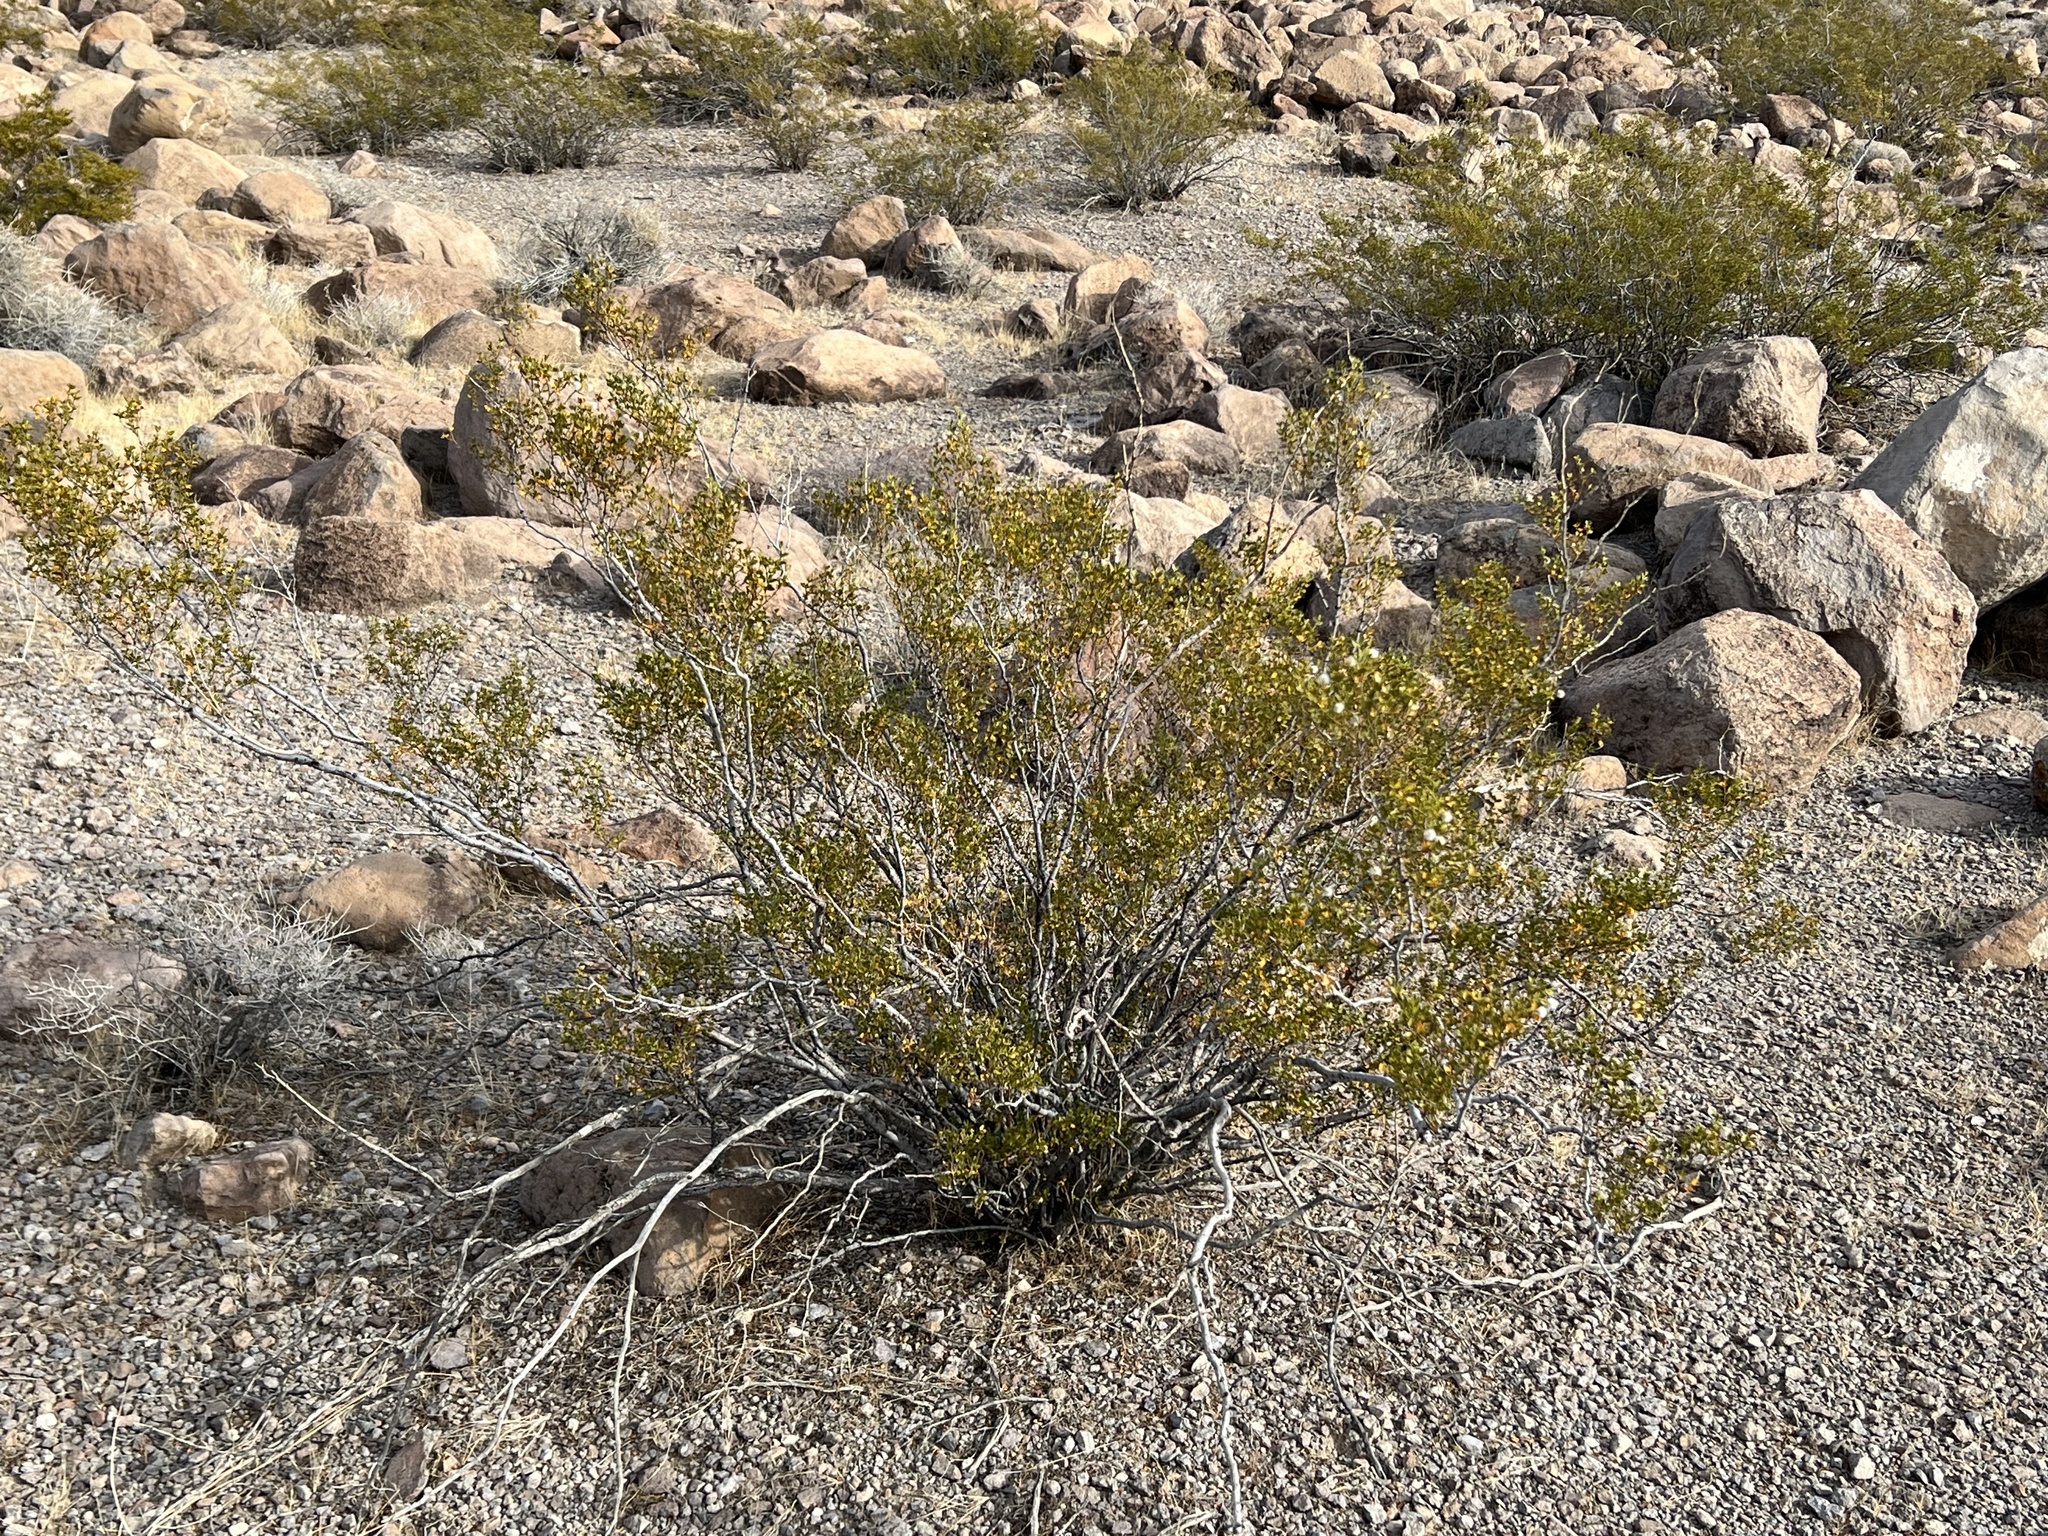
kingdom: Plantae
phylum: Tracheophyta
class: Magnoliopsida
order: Zygophyllales
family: Zygophyllaceae
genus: Larrea
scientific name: Larrea tridentata
